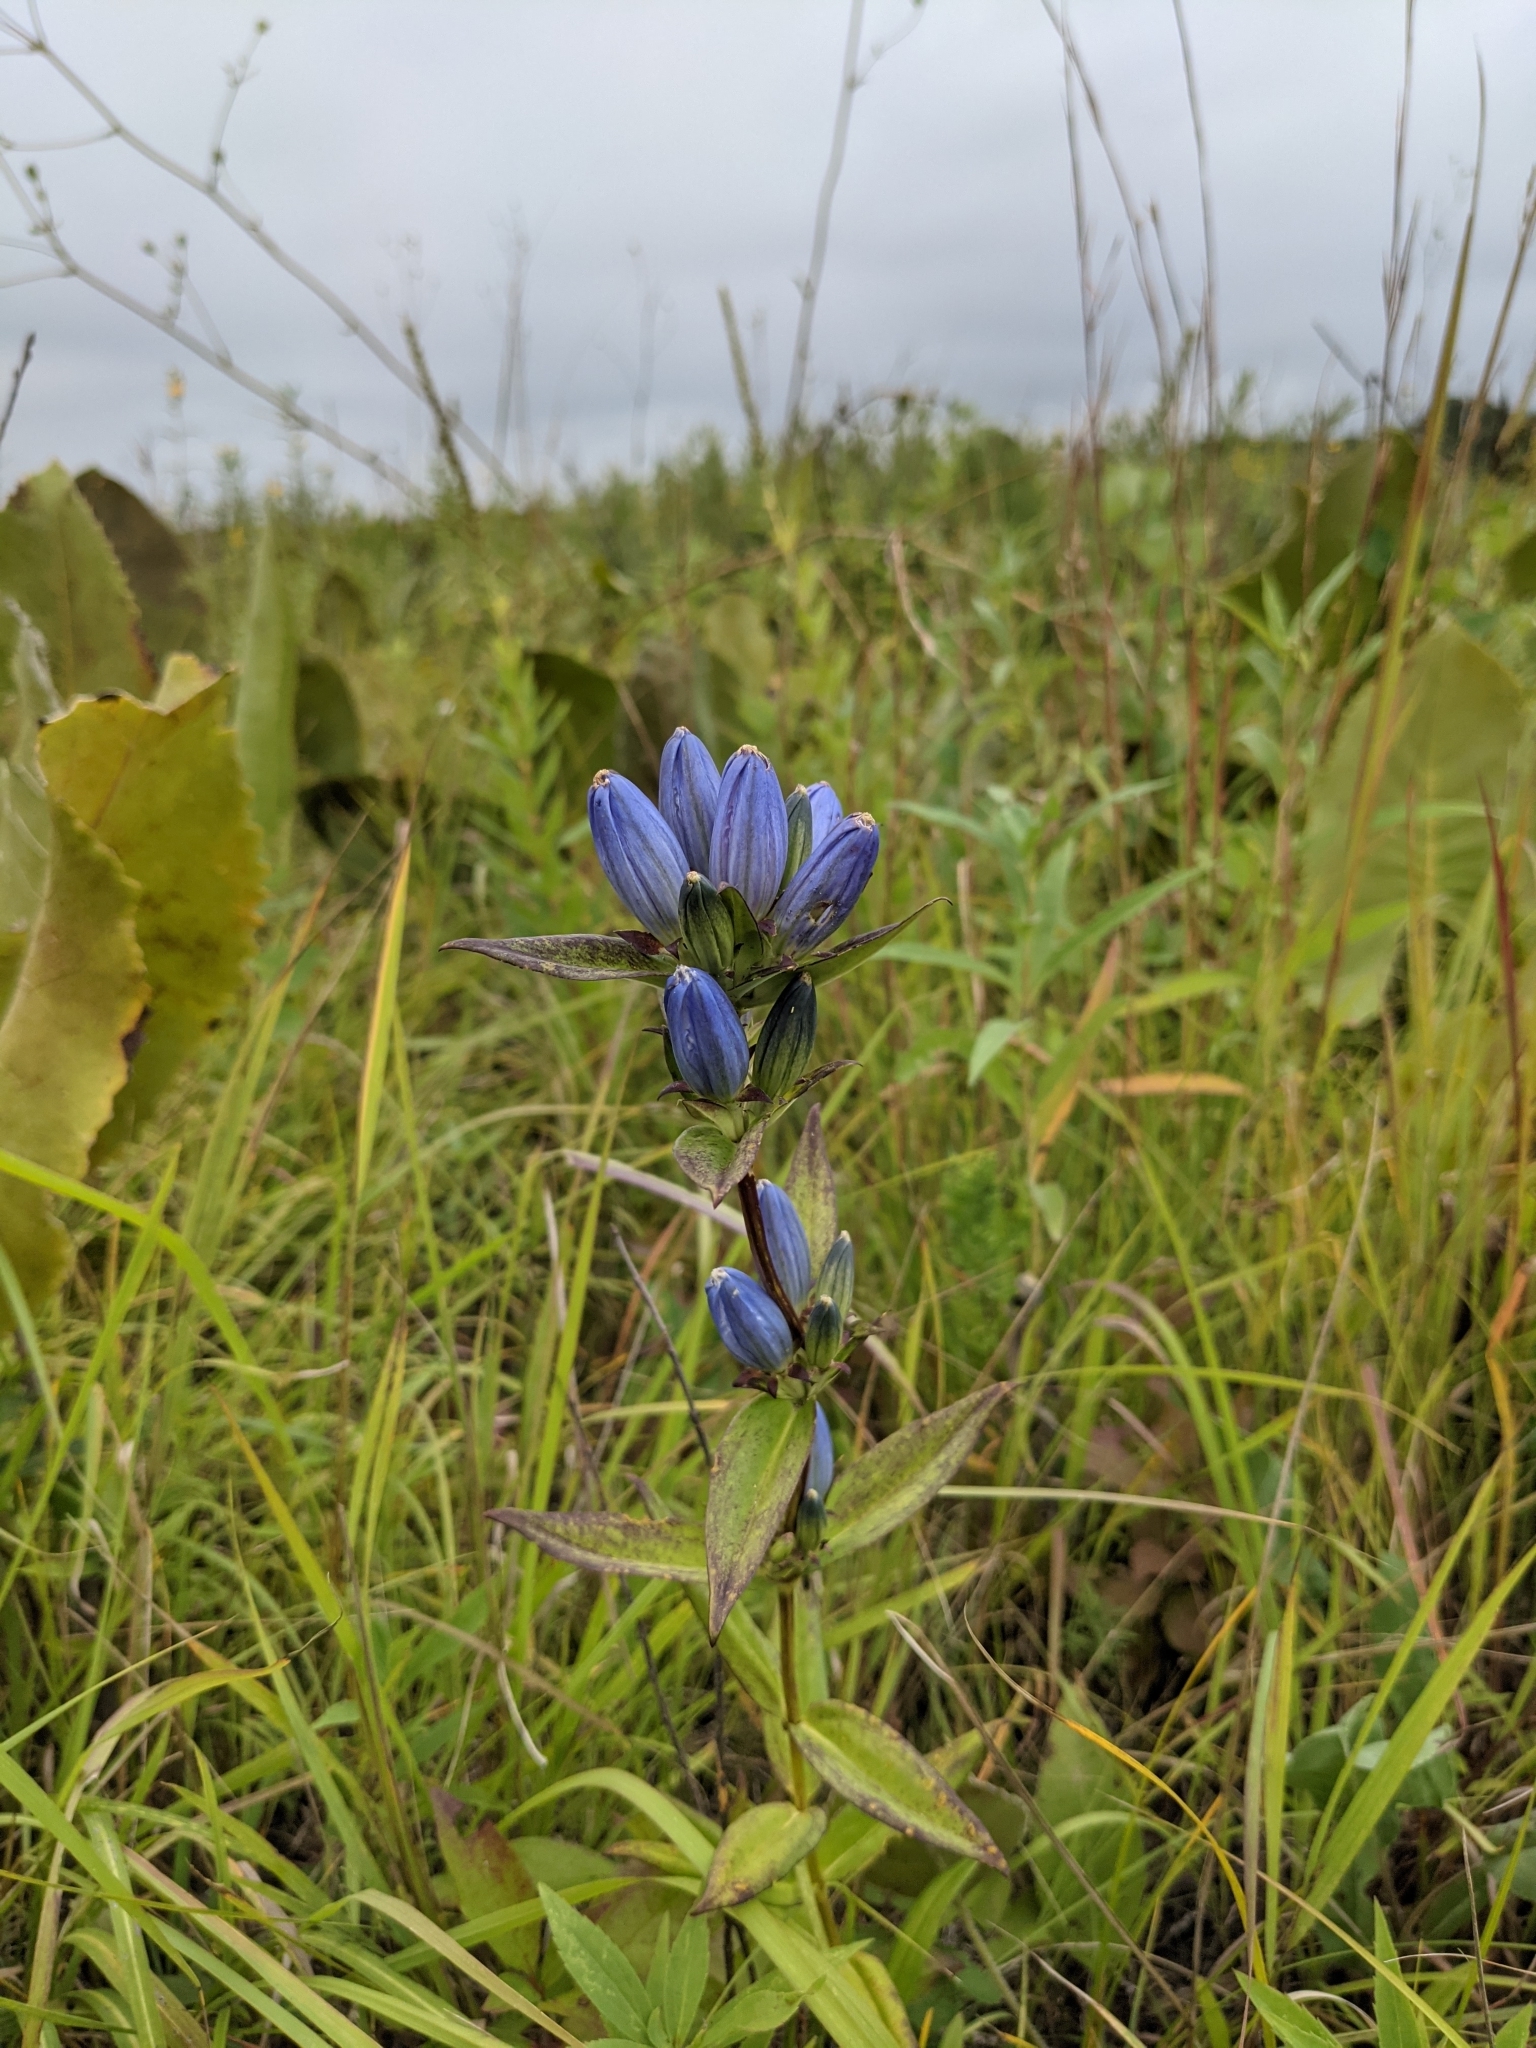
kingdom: Plantae
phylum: Tracheophyta
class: Magnoliopsida
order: Gentianales
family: Gentianaceae
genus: Gentiana
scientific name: Gentiana andrewsii
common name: Bottle gentian
